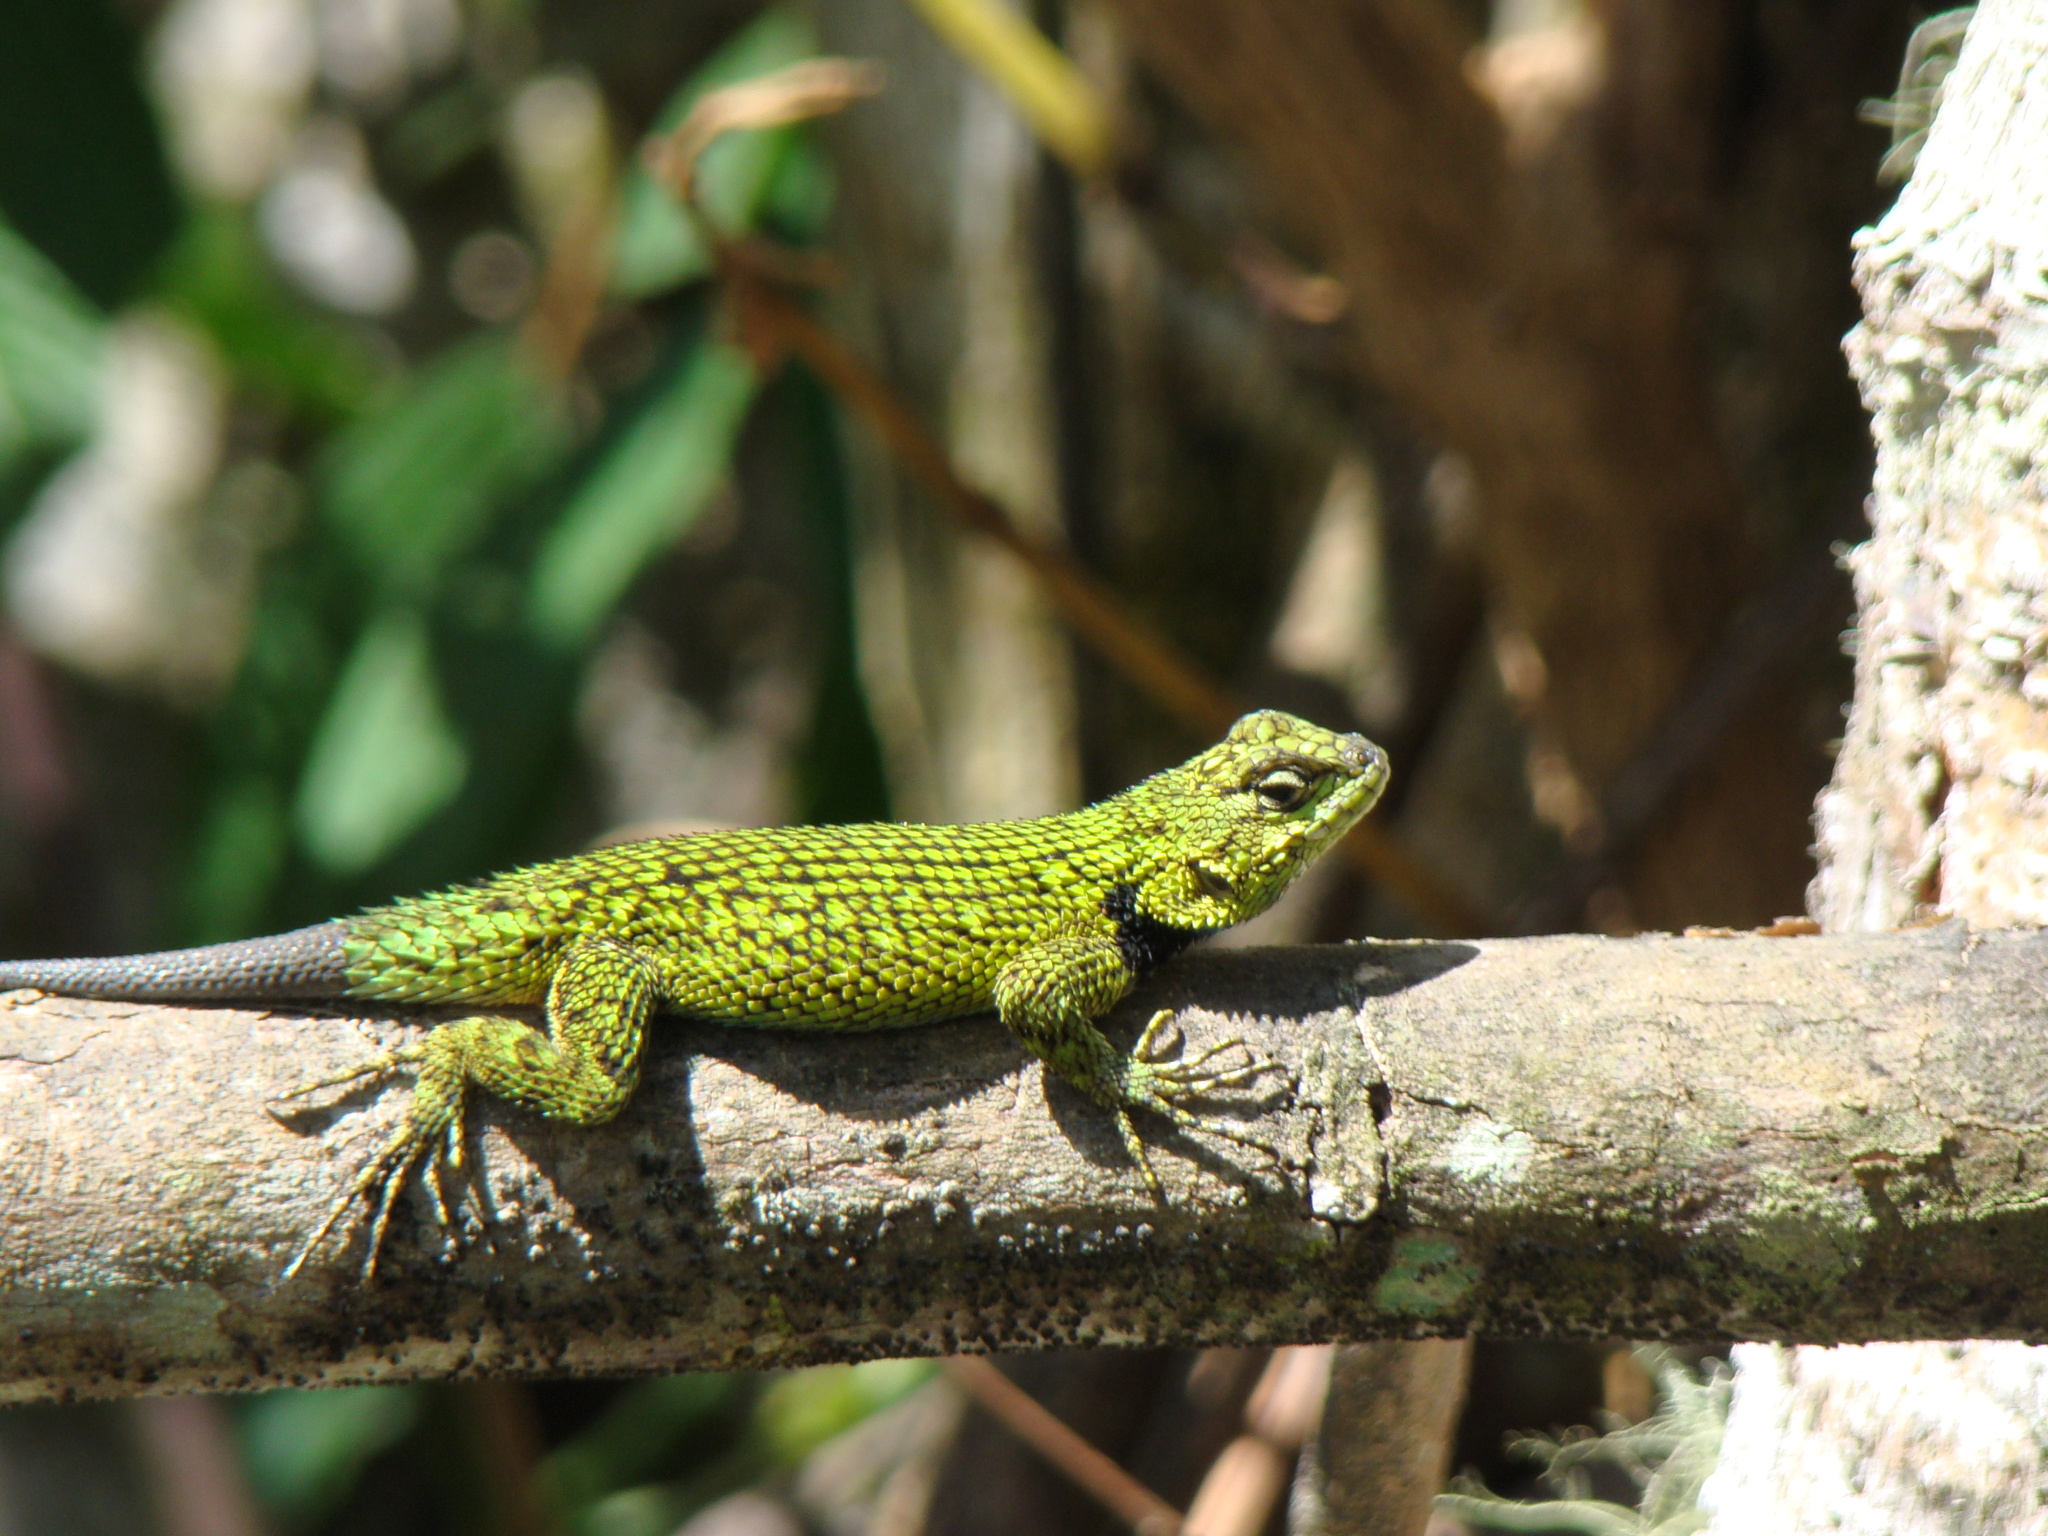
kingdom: Animalia
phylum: Chordata
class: Squamata
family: Phrynosomatidae
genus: Sceloporus
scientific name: Sceloporus malachiticus
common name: Green spiny lizard
